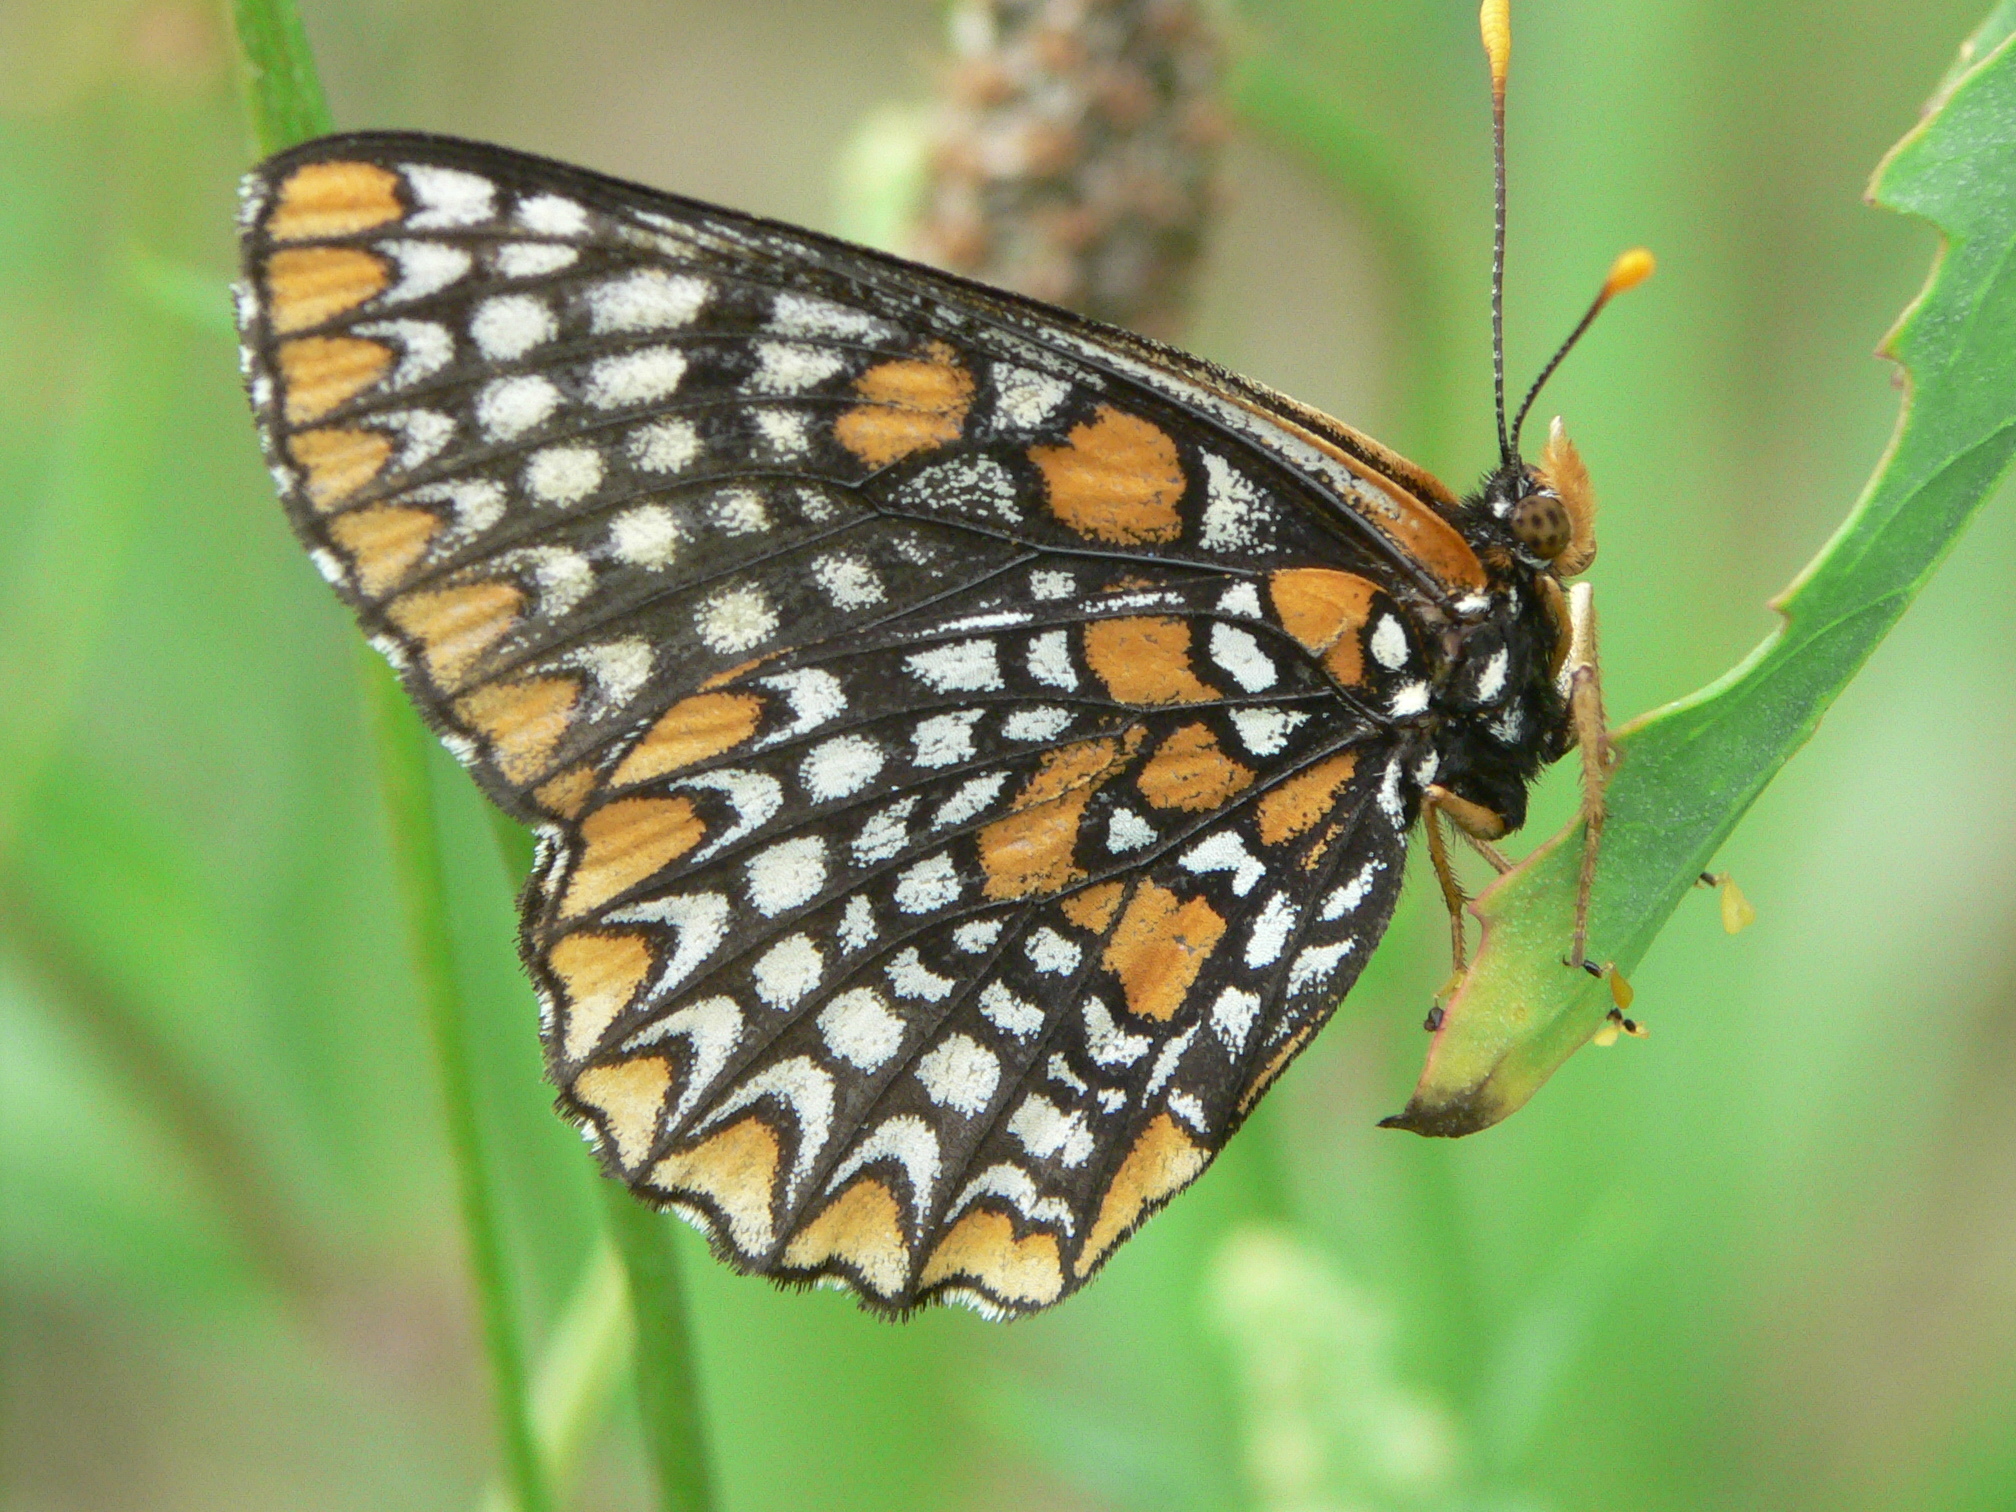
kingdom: Animalia
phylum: Arthropoda
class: Insecta
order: Lepidoptera
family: Nymphalidae
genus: Euphydryas
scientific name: Euphydryas phaeton
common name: Baltimore checkerspot
